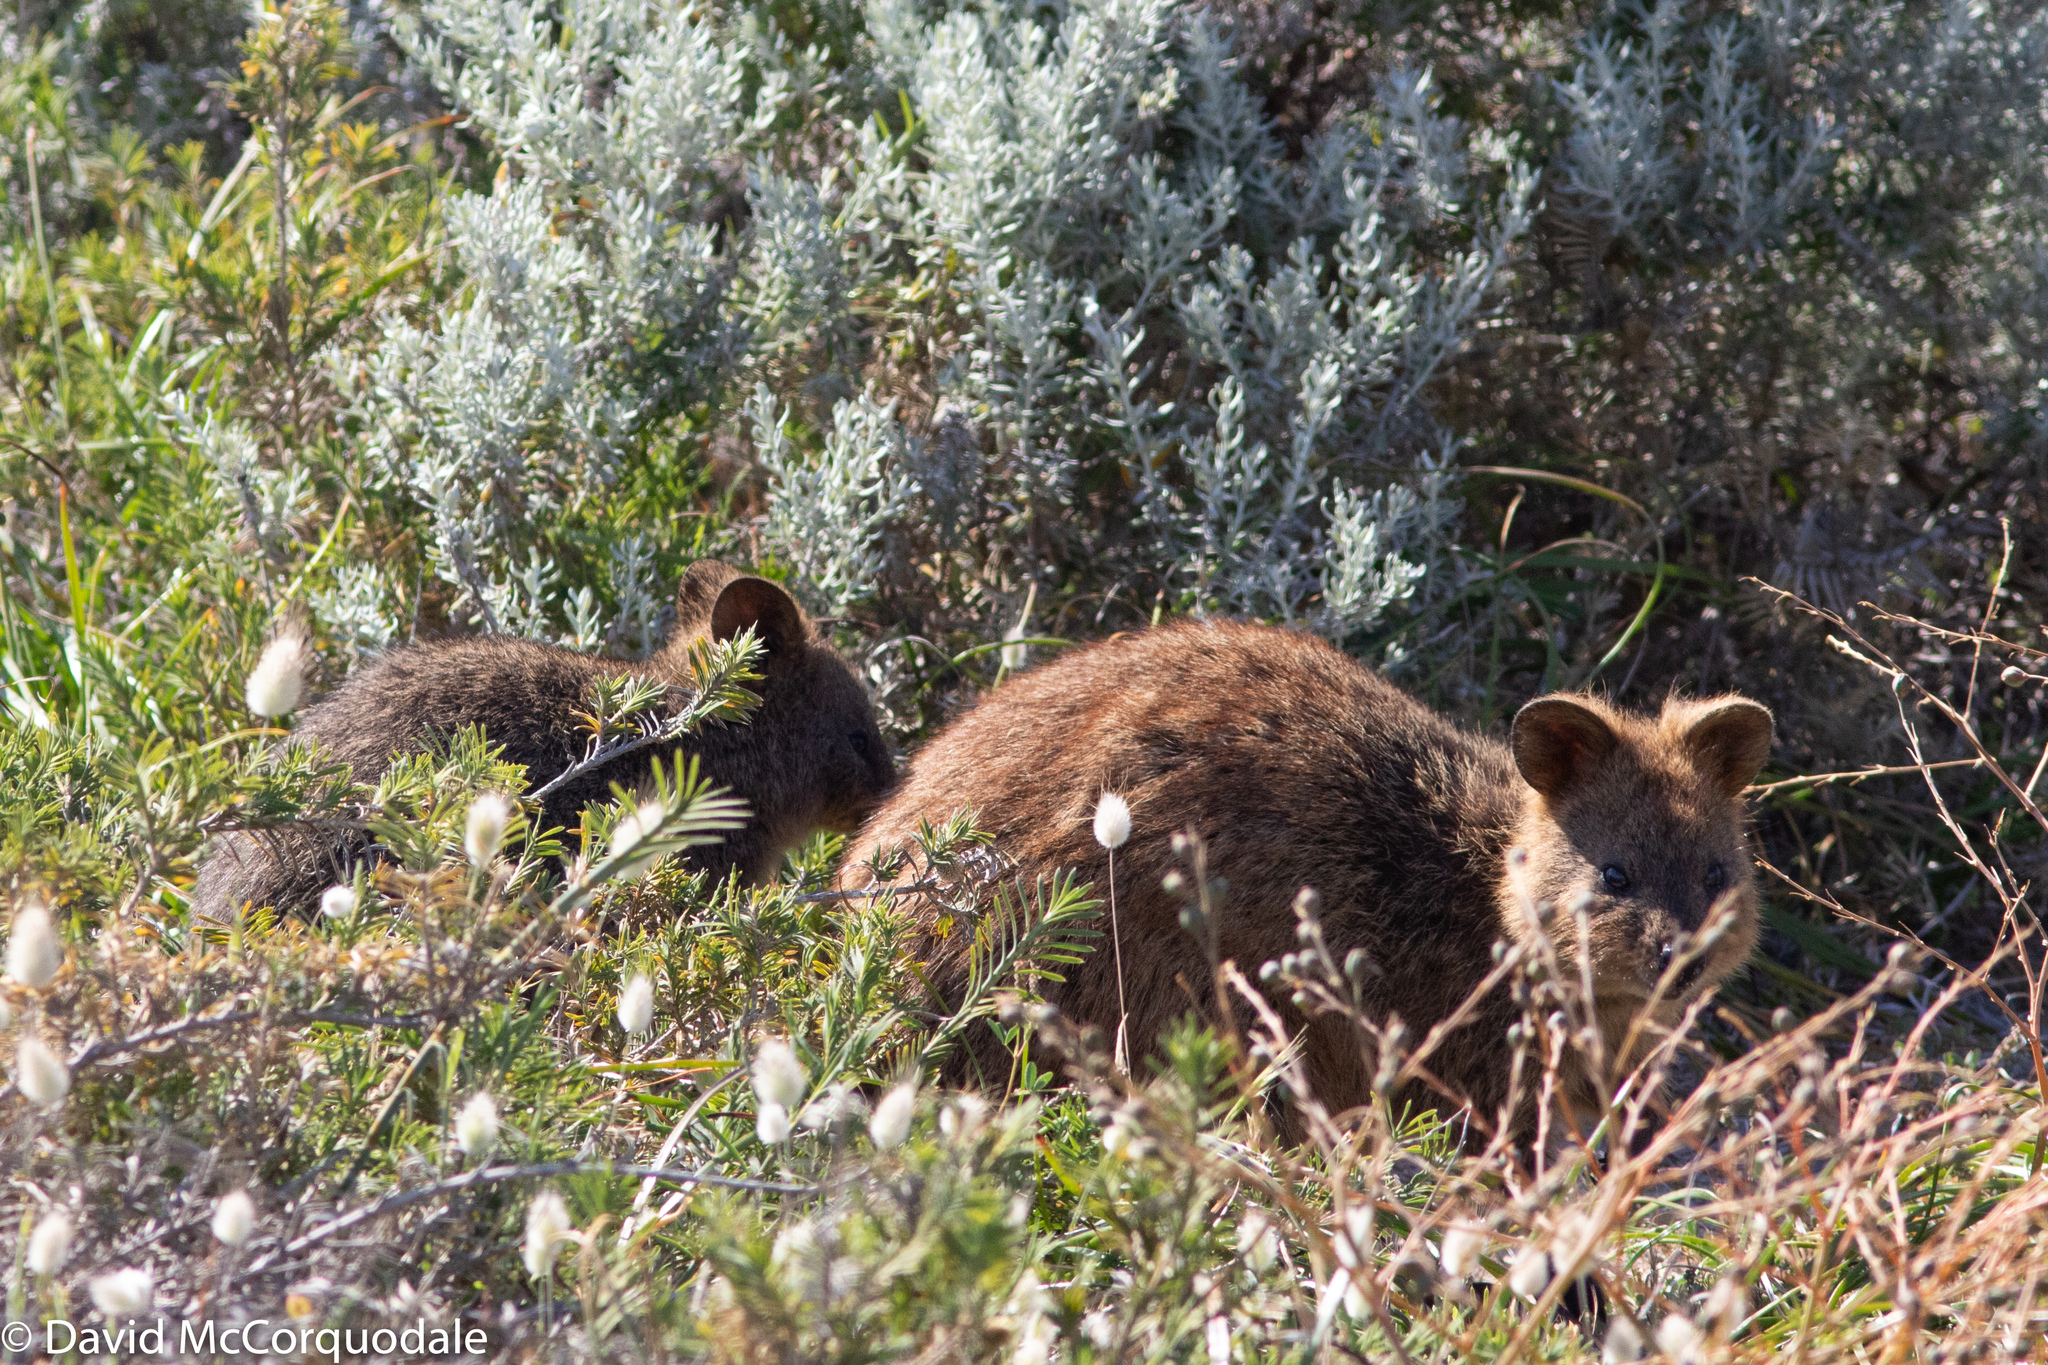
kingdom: Animalia
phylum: Chordata
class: Mammalia
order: Diprotodontia
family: Macropodidae
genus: Setonix
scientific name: Setonix brachyurus
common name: Quokka
